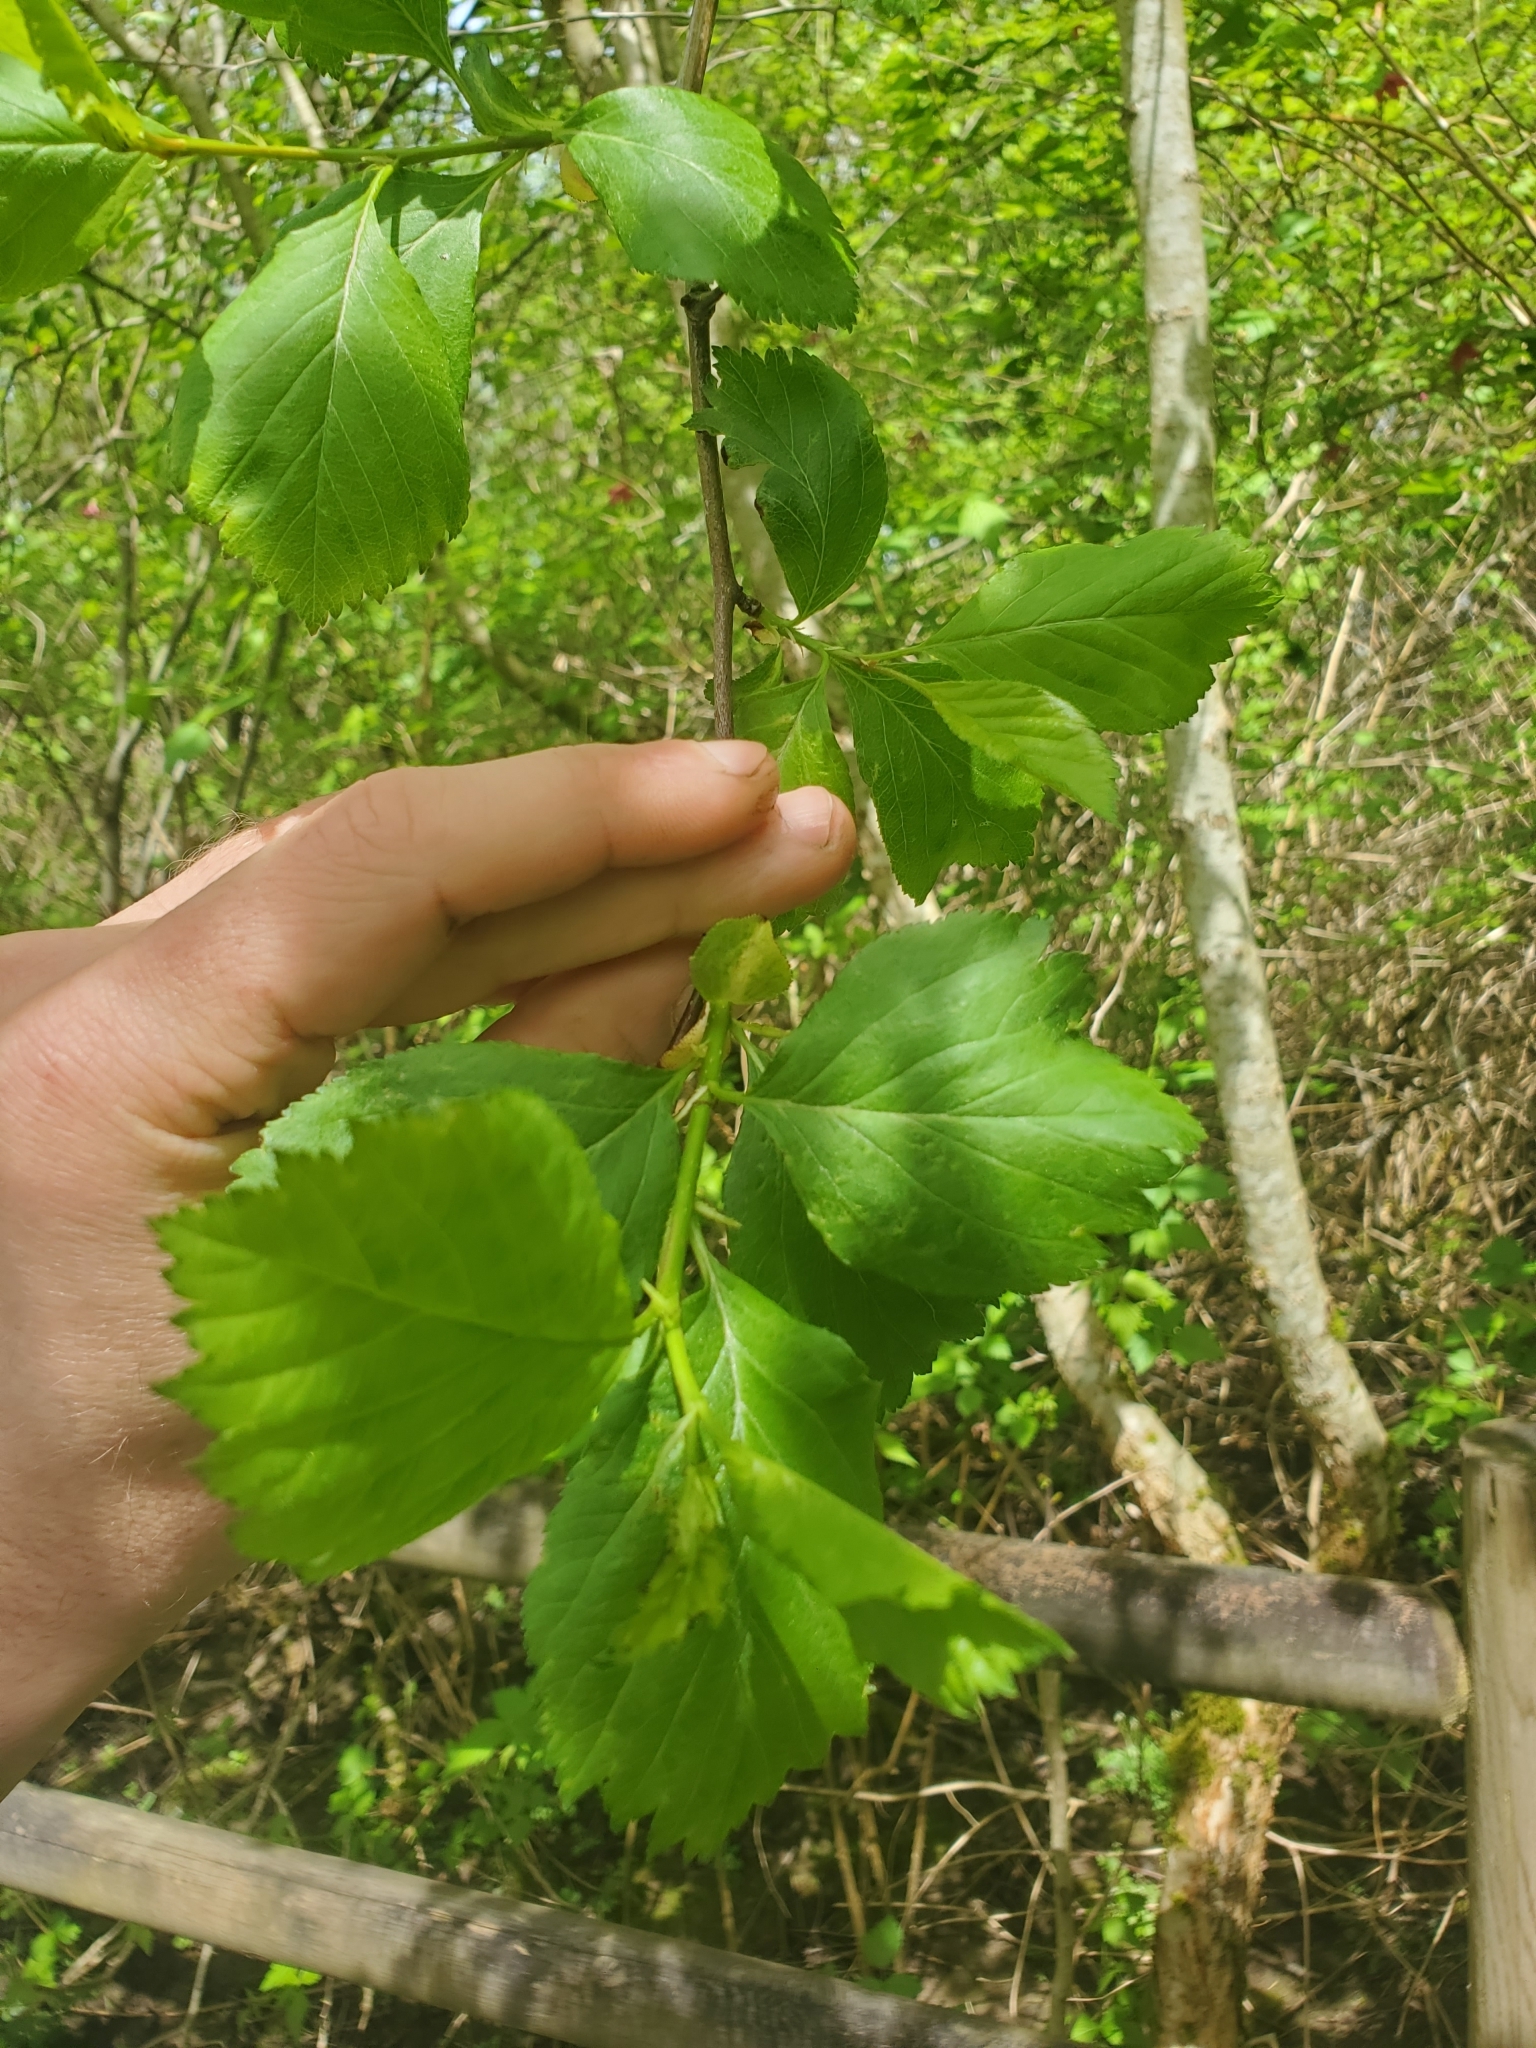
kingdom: Plantae
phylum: Tracheophyta
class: Magnoliopsida
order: Rosales
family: Rosaceae
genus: Crataegus
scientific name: Crataegus douglasii
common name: Black hawthorn
